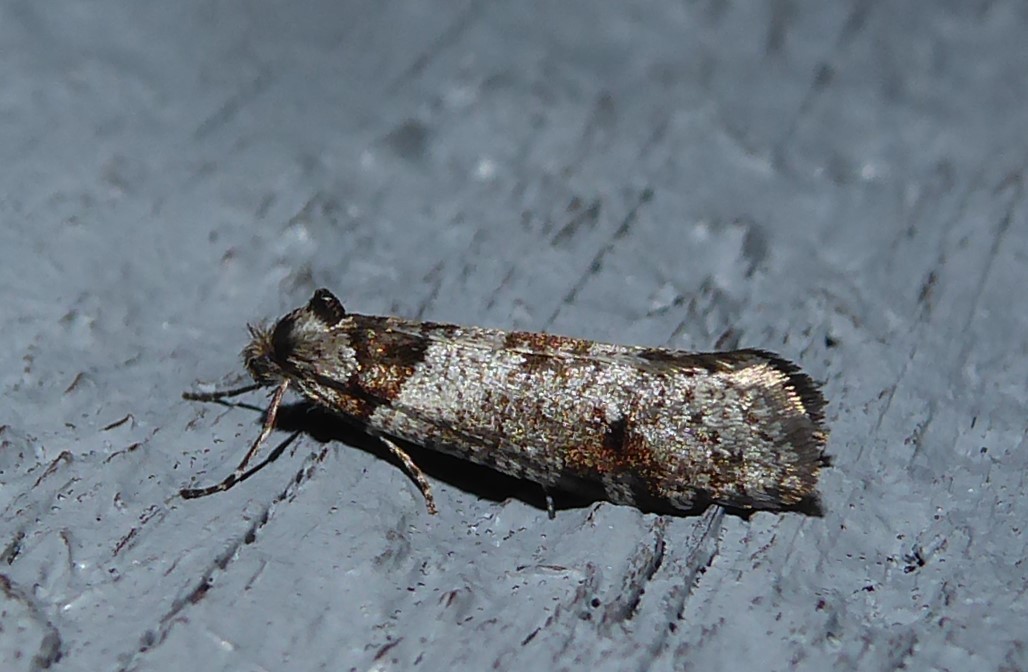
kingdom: Animalia
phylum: Arthropoda
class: Insecta
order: Lepidoptera
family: Psychidae
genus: Lepidoscia
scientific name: Lepidoscia heliochares
